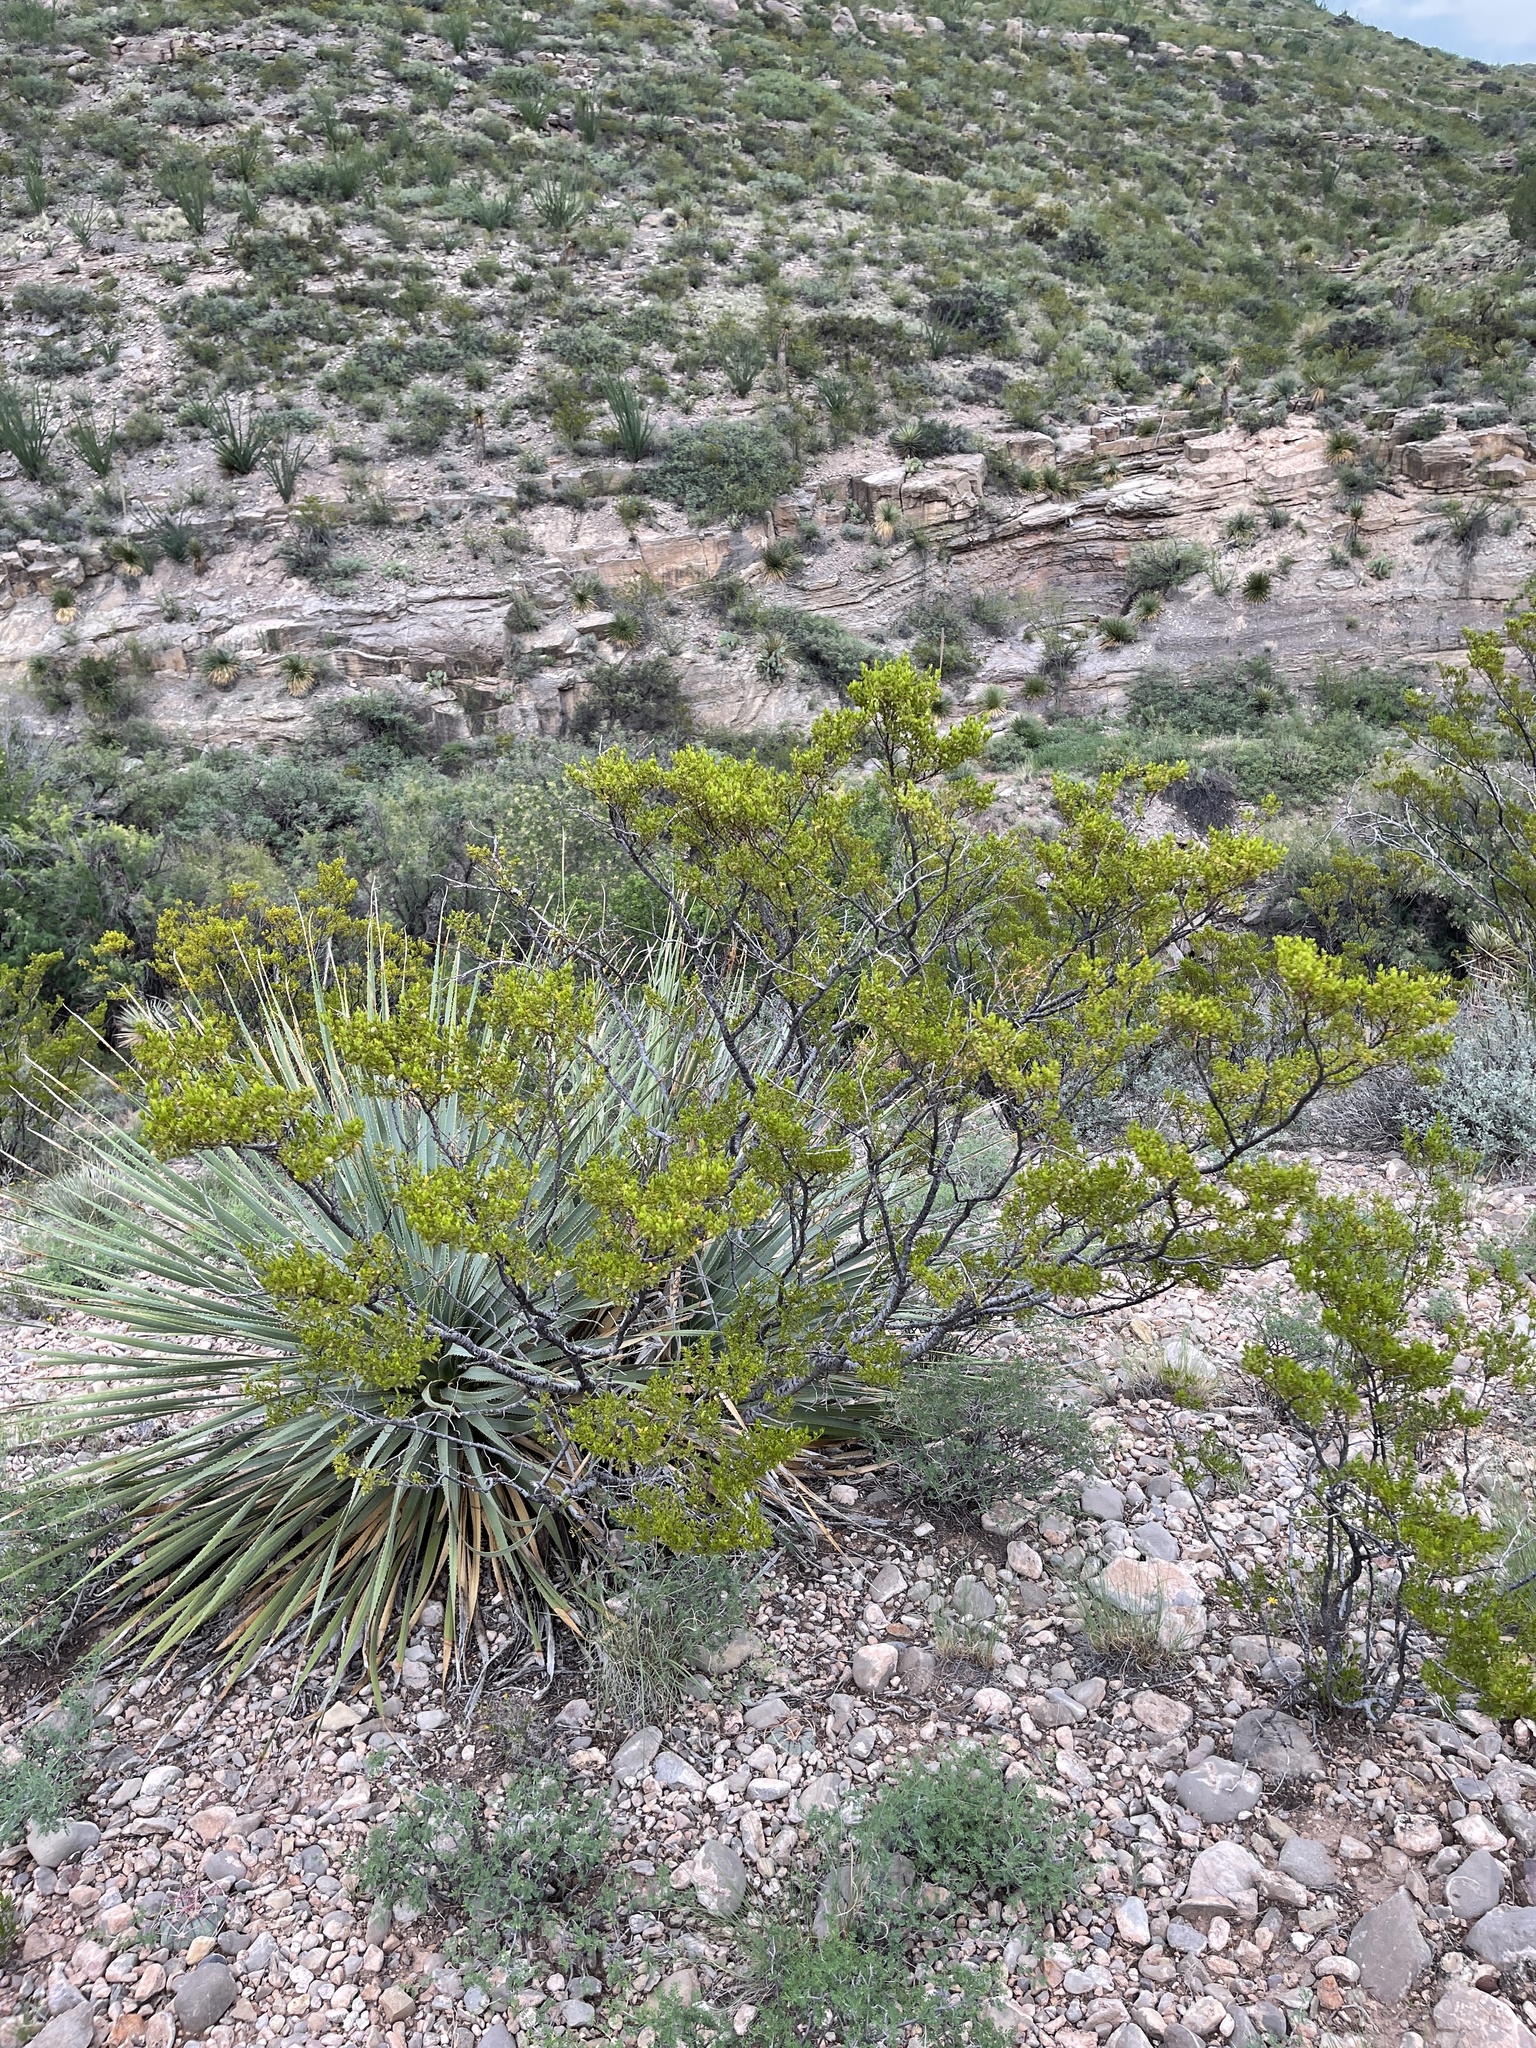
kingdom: Plantae
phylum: Tracheophyta
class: Magnoliopsida
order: Zygophyllales
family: Zygophyllaceae
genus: Larrea
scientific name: Larrea tridentata
